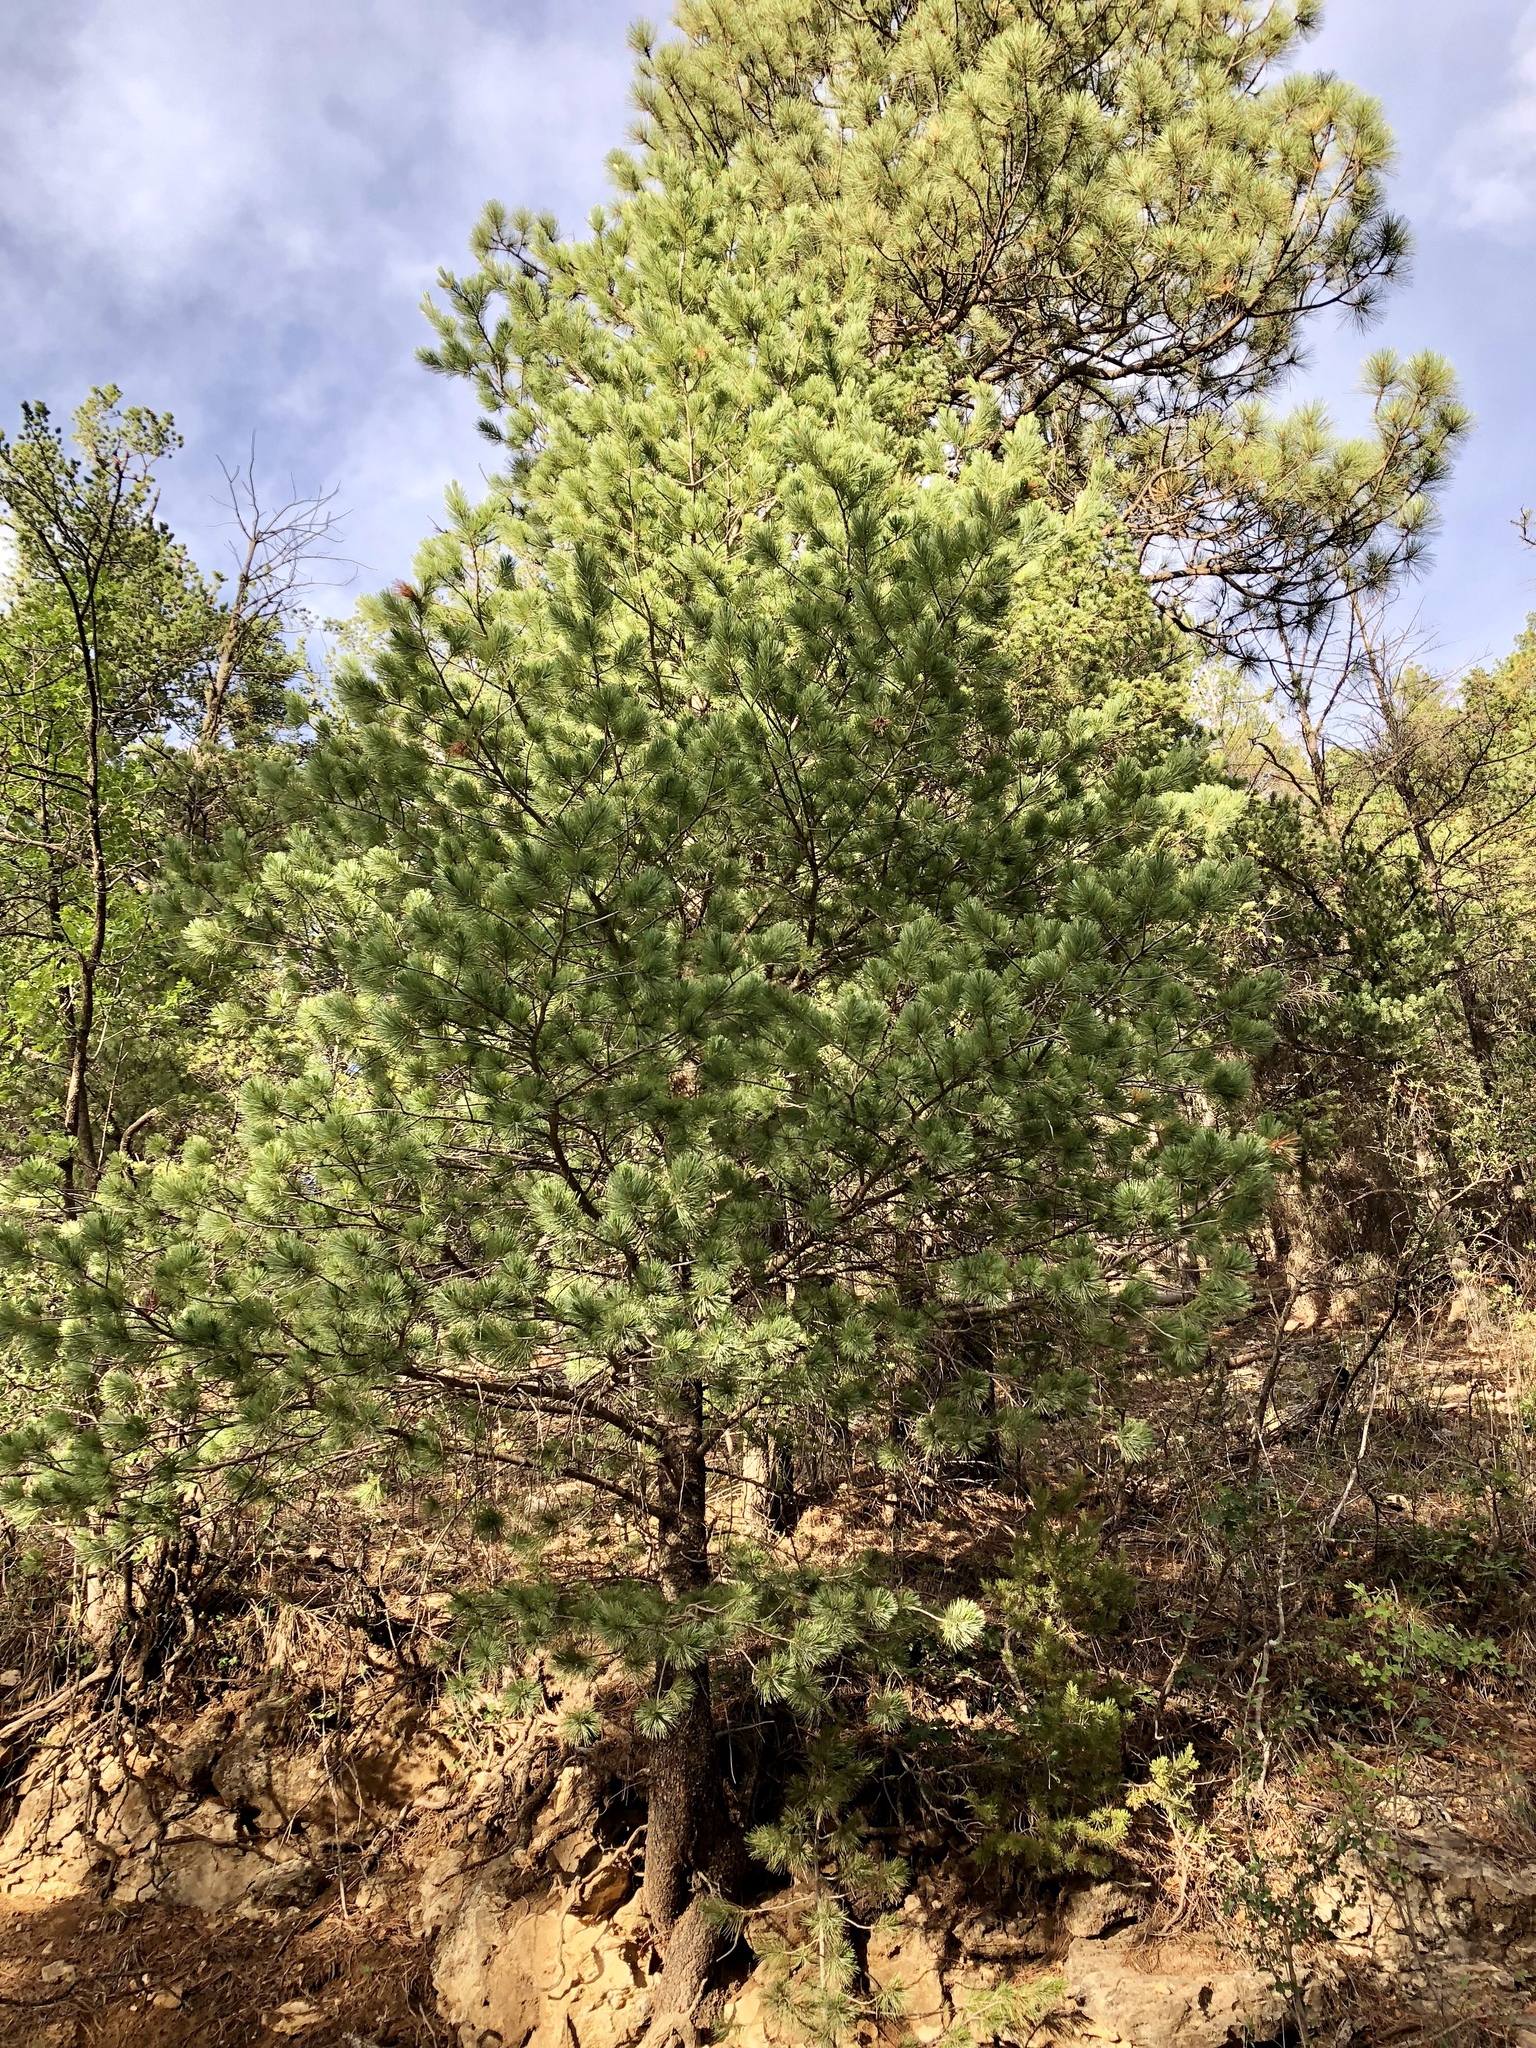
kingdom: Plantae
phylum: Tracheophyta
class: Pinopsida
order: Pinales
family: Pinaceae
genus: Pinus
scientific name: Pinus strobiformis
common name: Southwestern white pine
